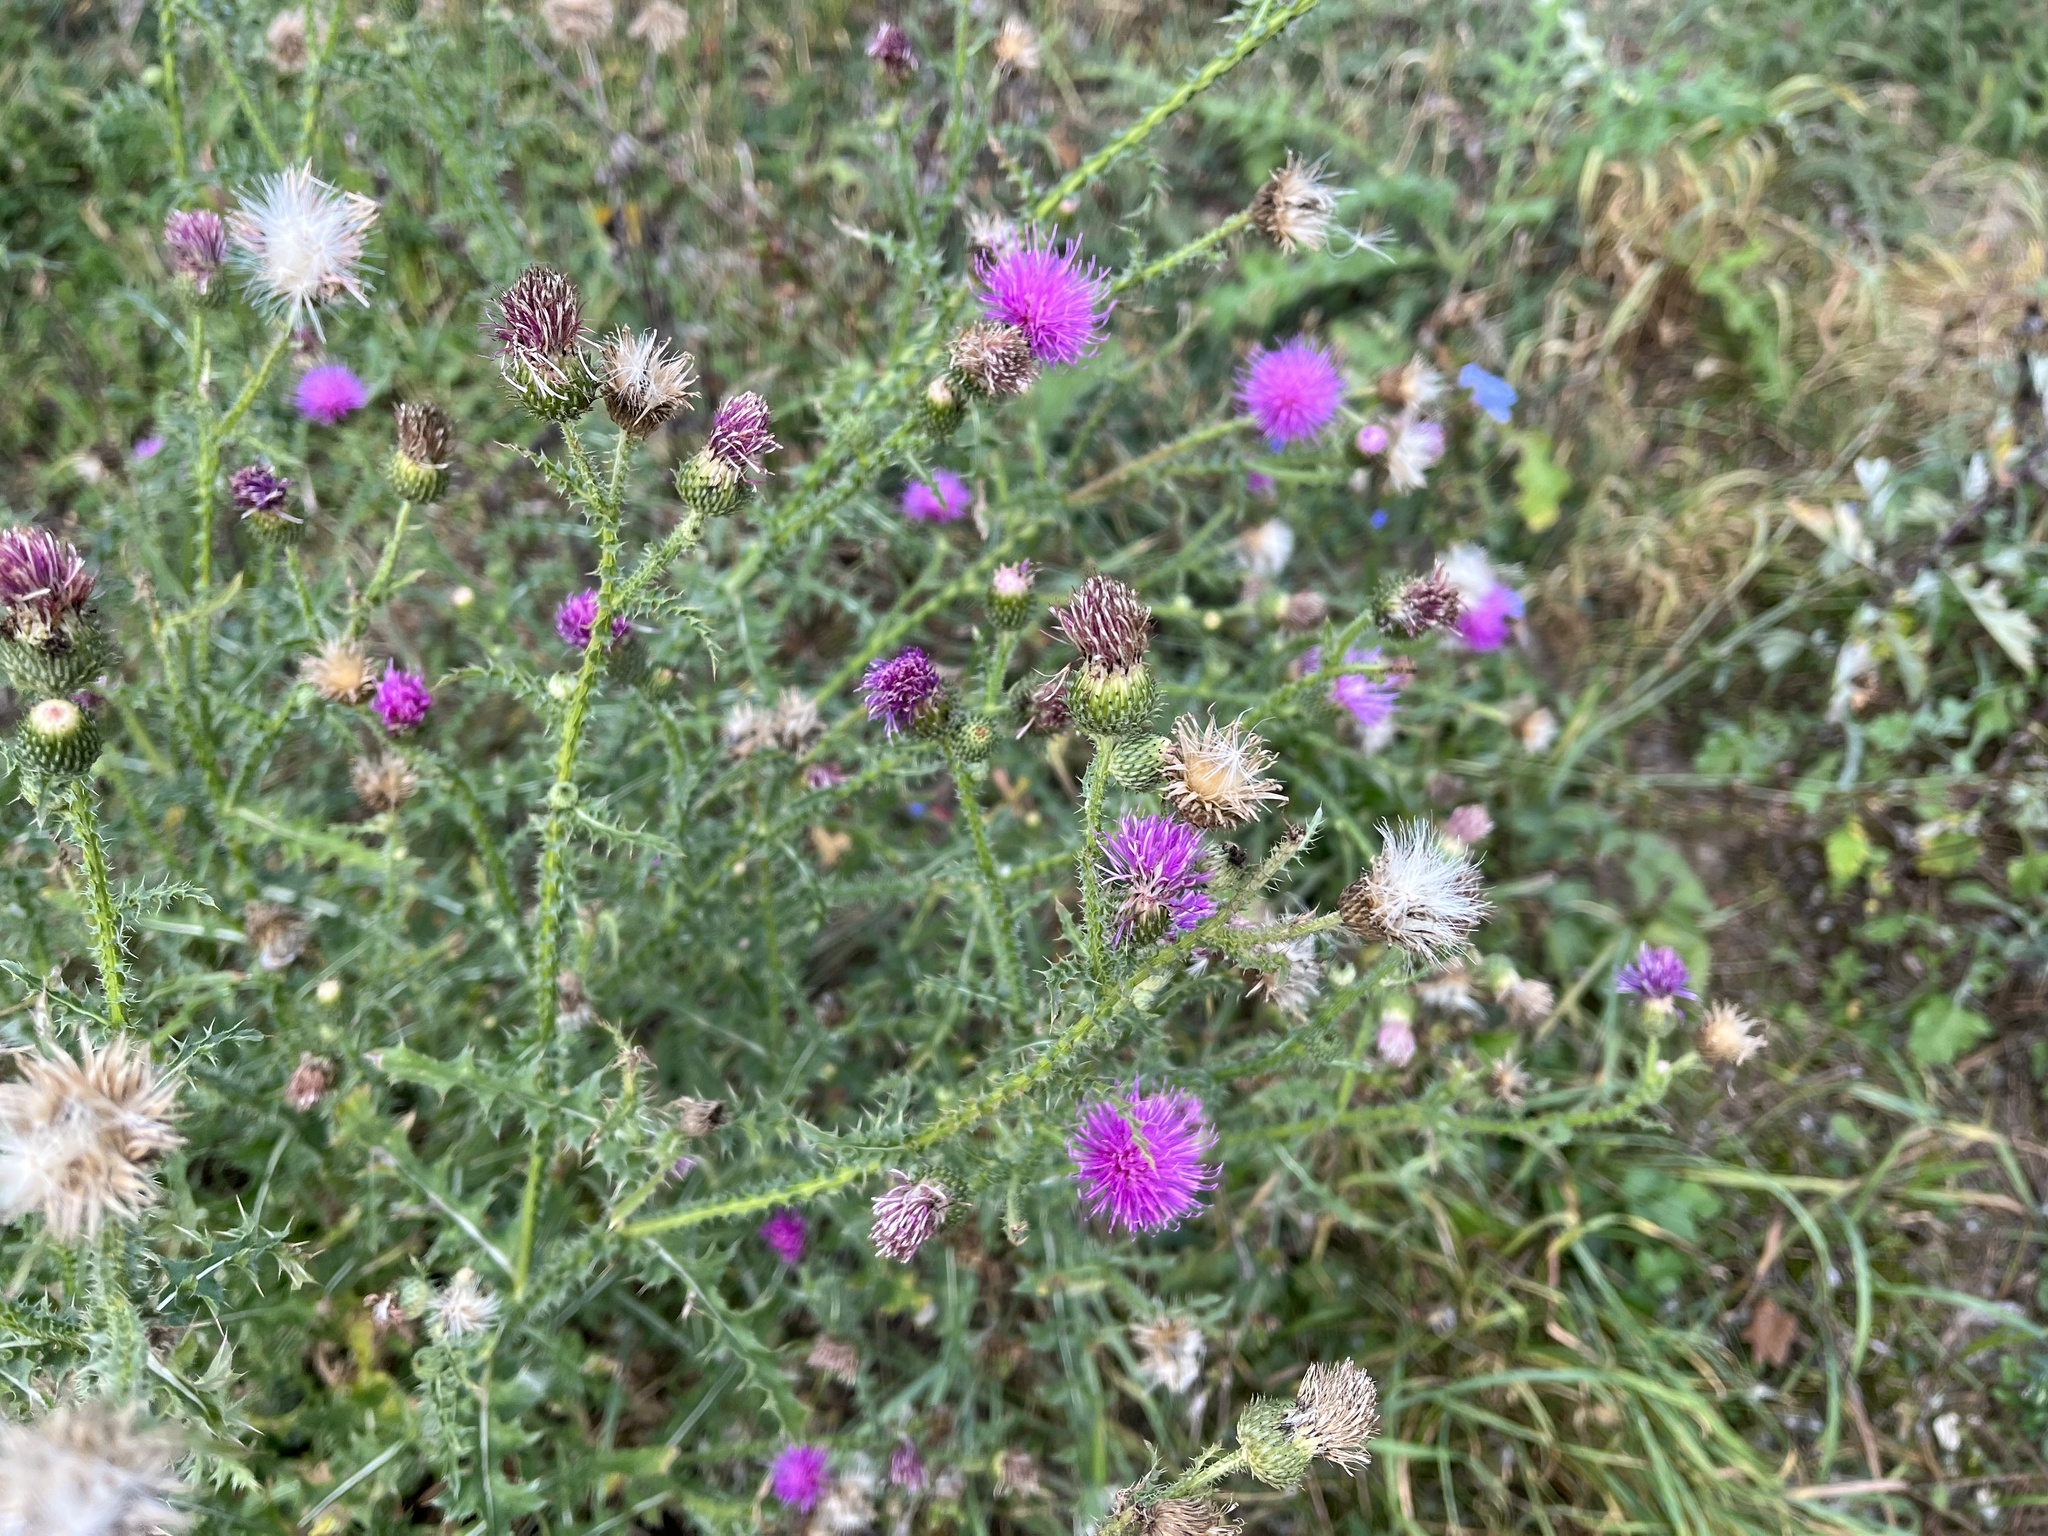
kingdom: Plantae
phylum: Tracheophyta
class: Magnoliopsida
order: Asterales
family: Asteraceae
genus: Carduus
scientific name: Carduus acanthoides
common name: Plumeless thistle
